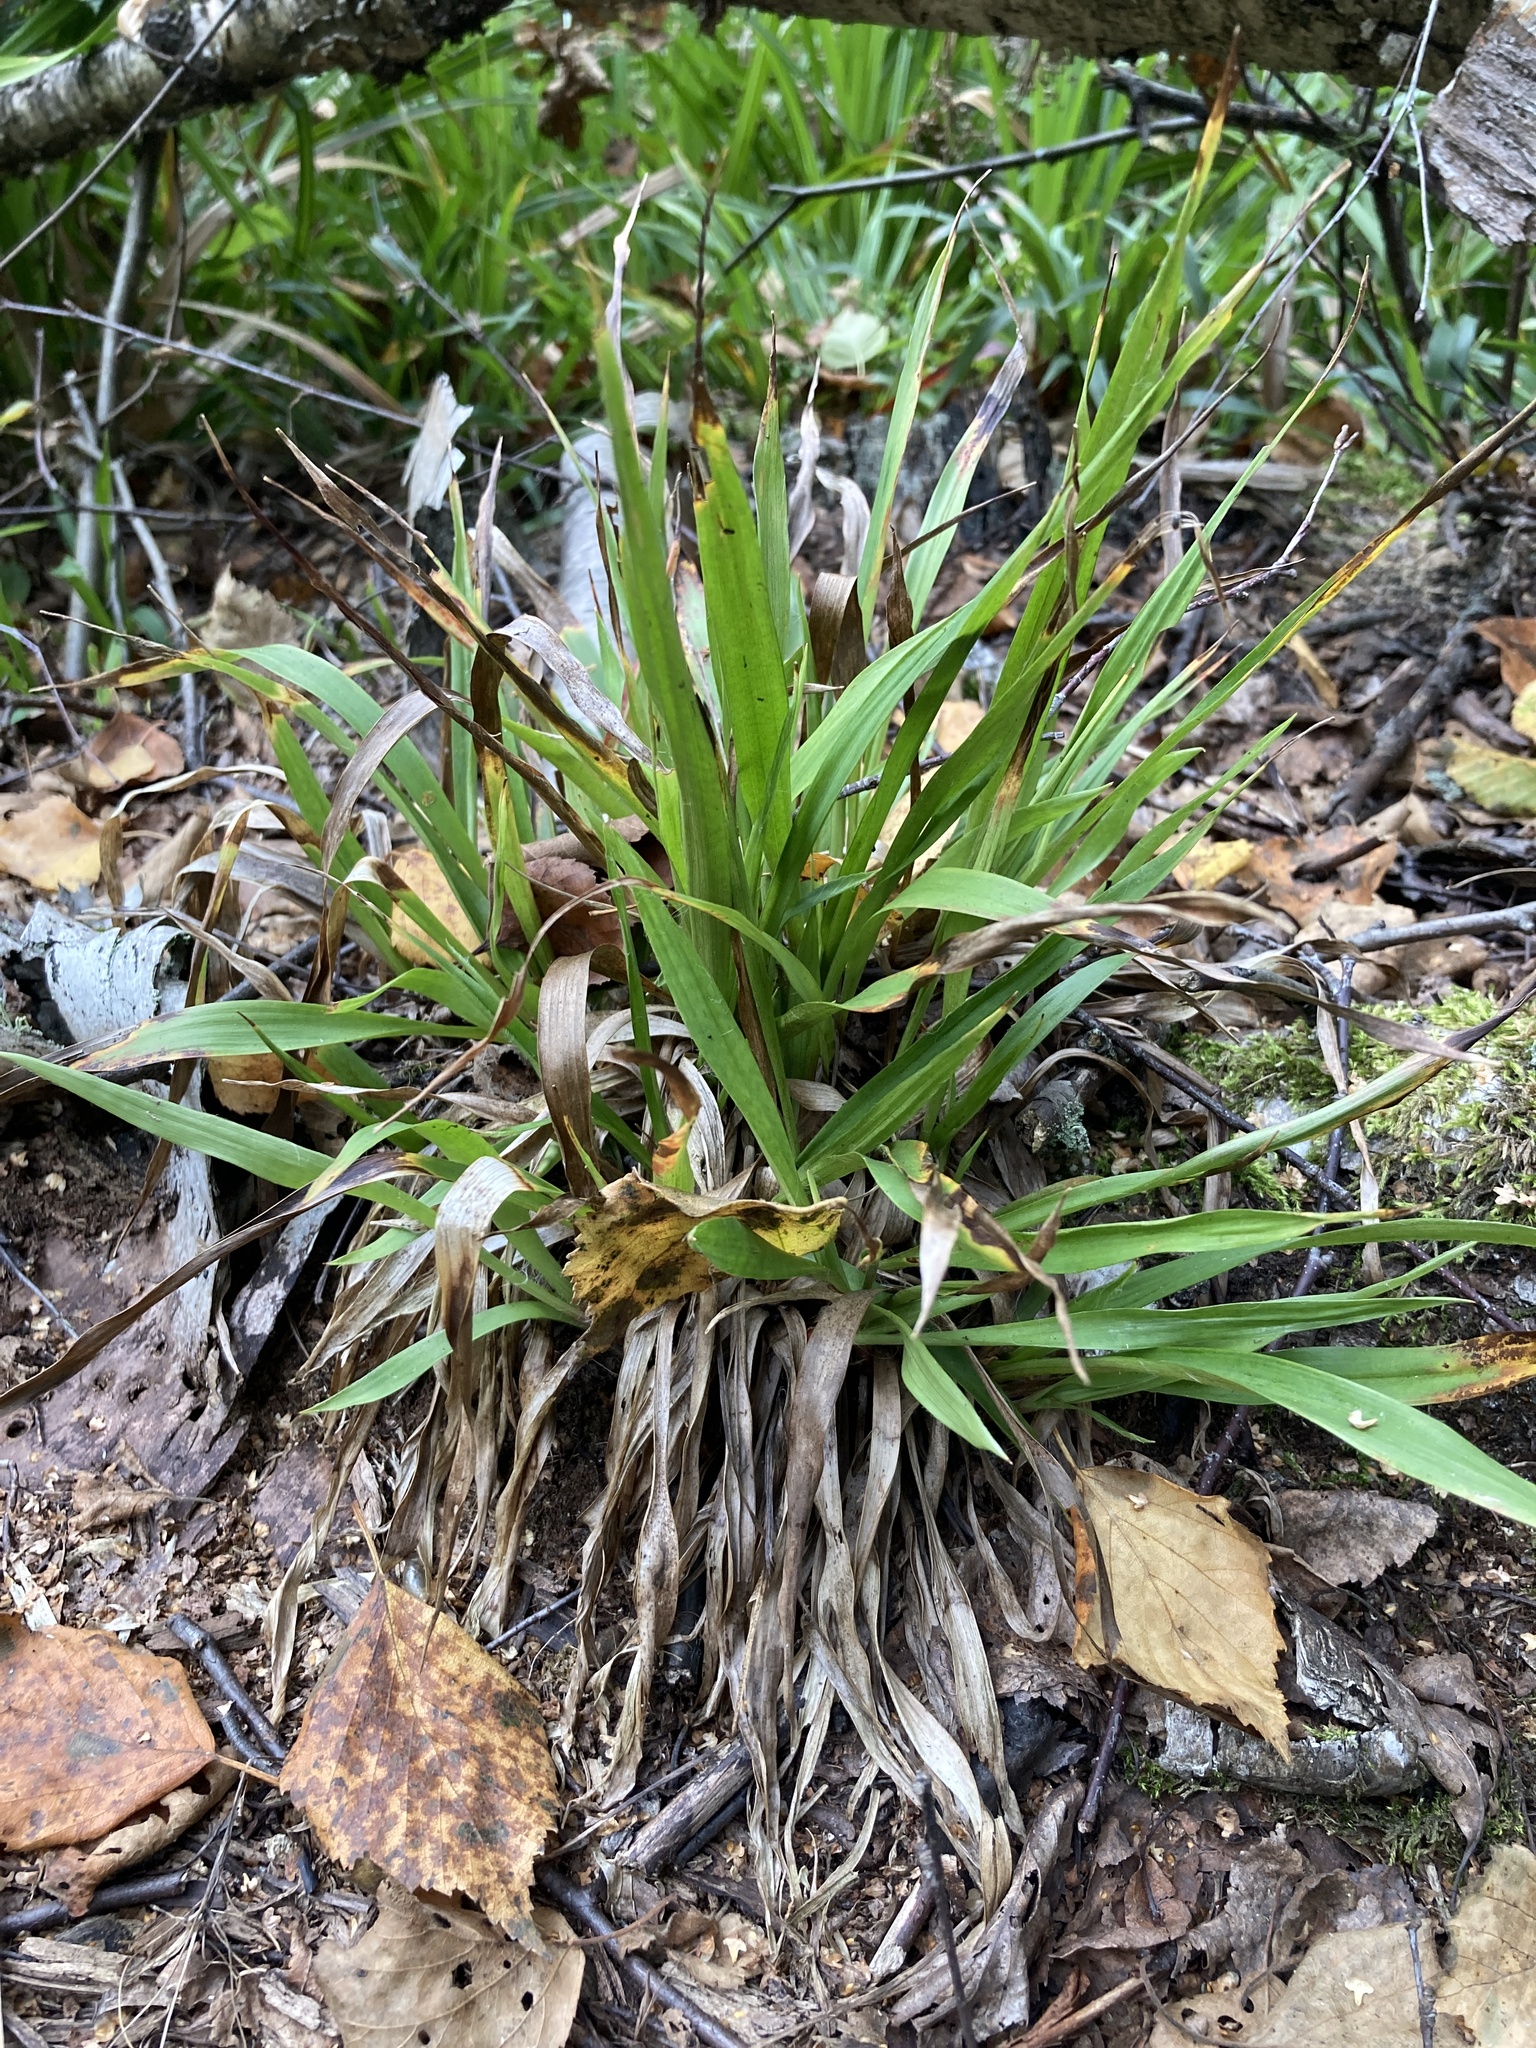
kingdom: Plantae
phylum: Tracheophyta
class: Liliopsida
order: Poales
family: Juncaceae
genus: Luzula
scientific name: Luzula pilosa
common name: Hairy wood-rush
